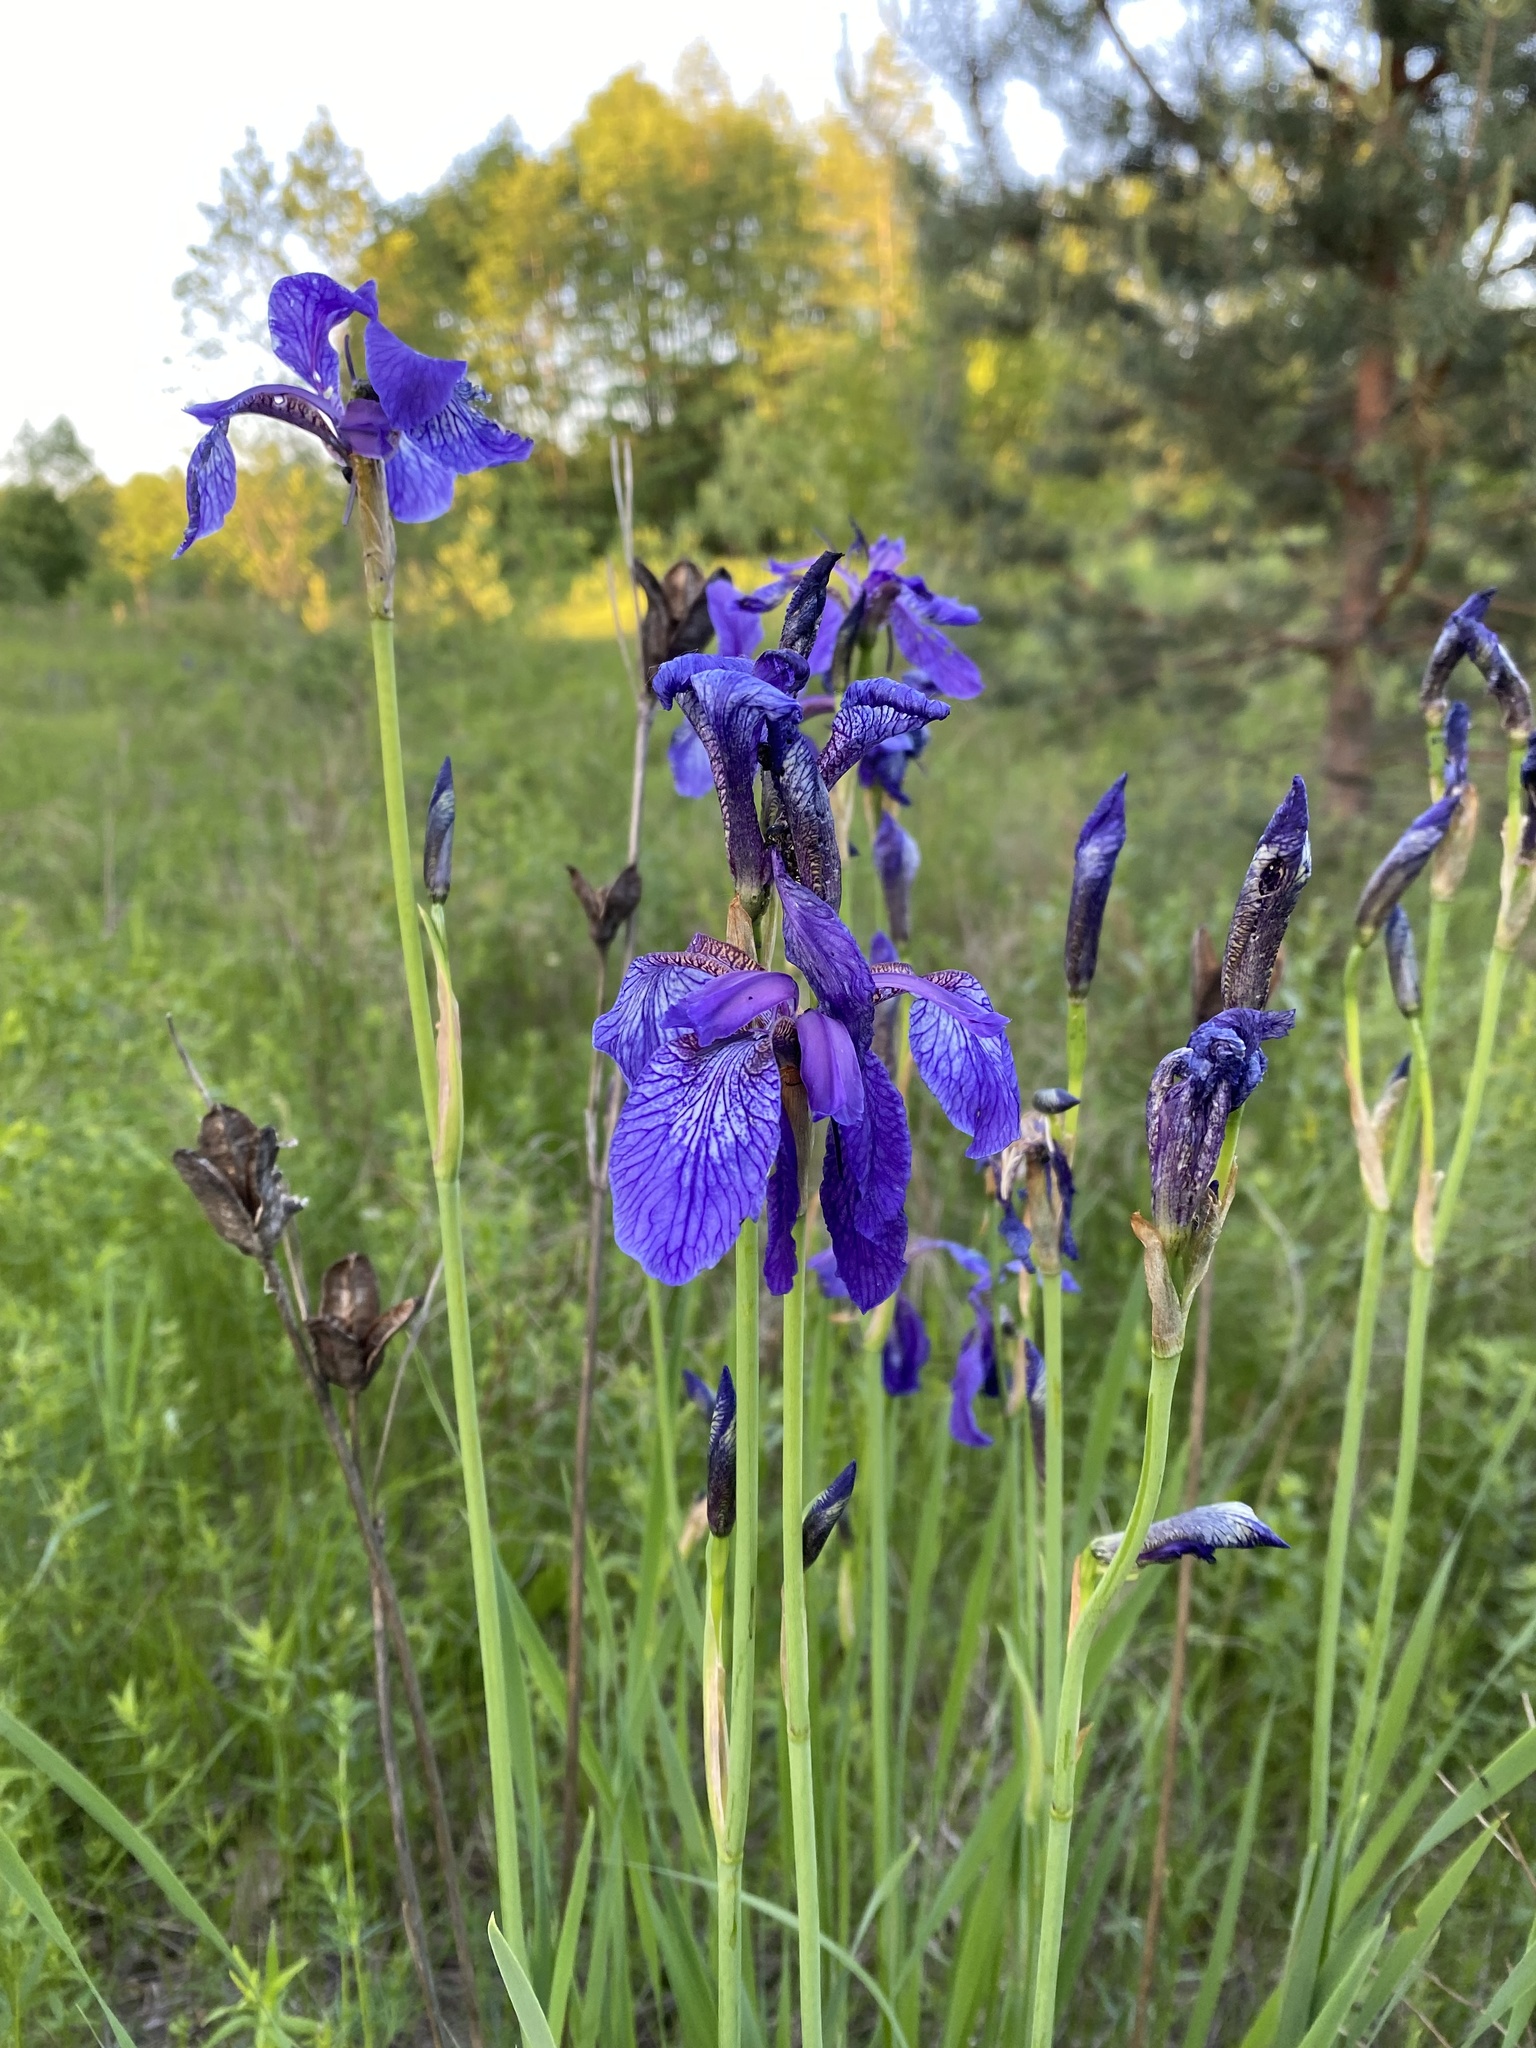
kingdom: Plantae
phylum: Tracheophyta
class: Liliopsida
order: Asparagales
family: Iridaceae
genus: Iris
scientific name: Iris sibirica
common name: Siberian iris
